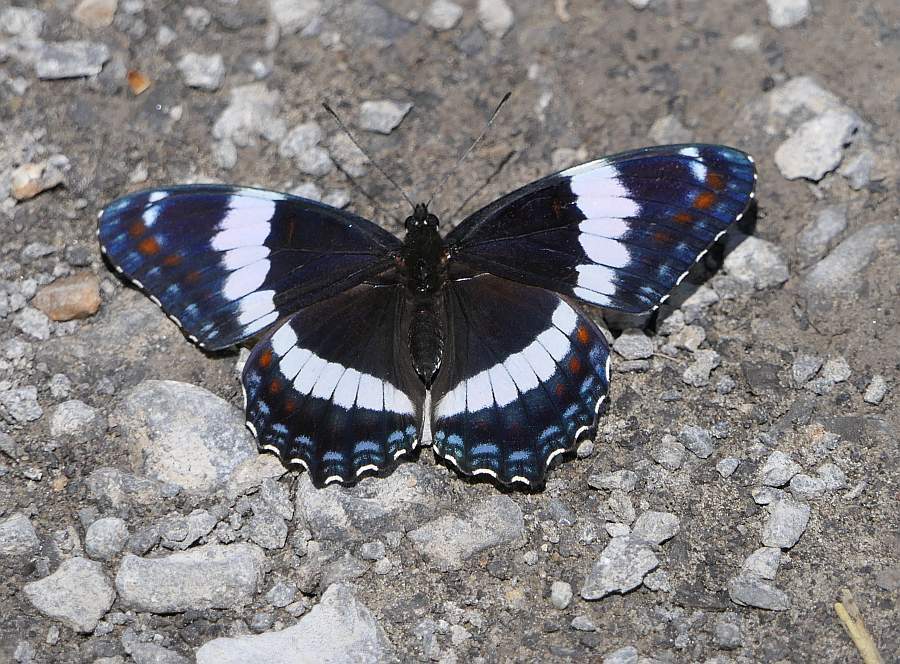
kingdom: Animalia
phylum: Arthropoda
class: Insecta
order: Lepidoptera
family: Nymphalidae
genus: Limenitis
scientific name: Limenitis arthemis
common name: Red-spotted admiral
